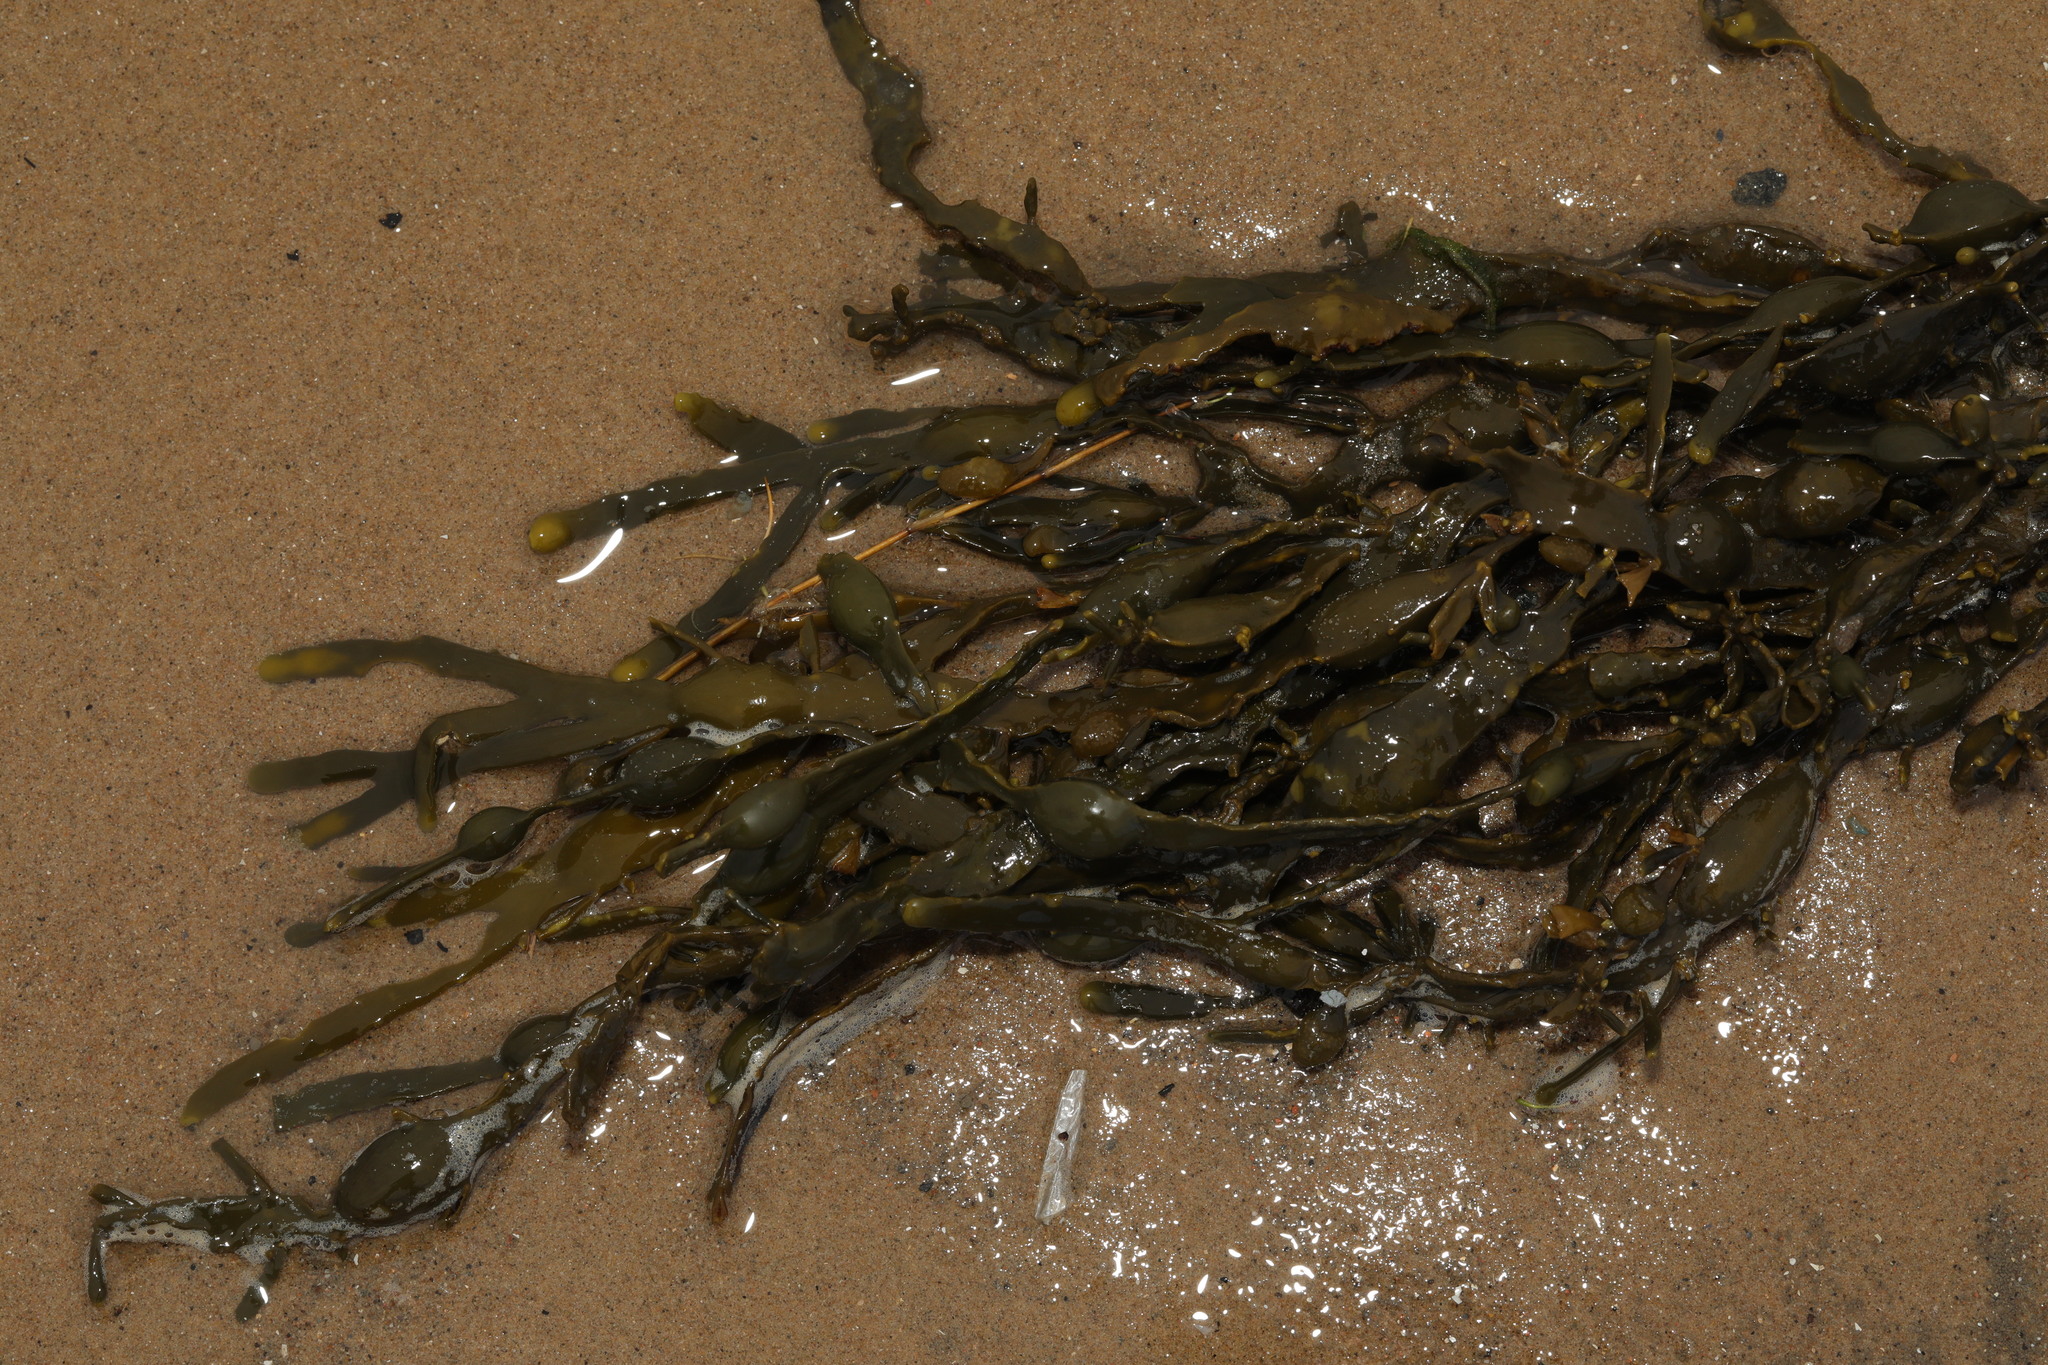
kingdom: Chromista
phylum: Ochrophyta
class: Phaeophyceae
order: Fucales
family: Fucaceae
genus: Ascophyllum
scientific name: Ascophyllum nodosum
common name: Knotted wrack
